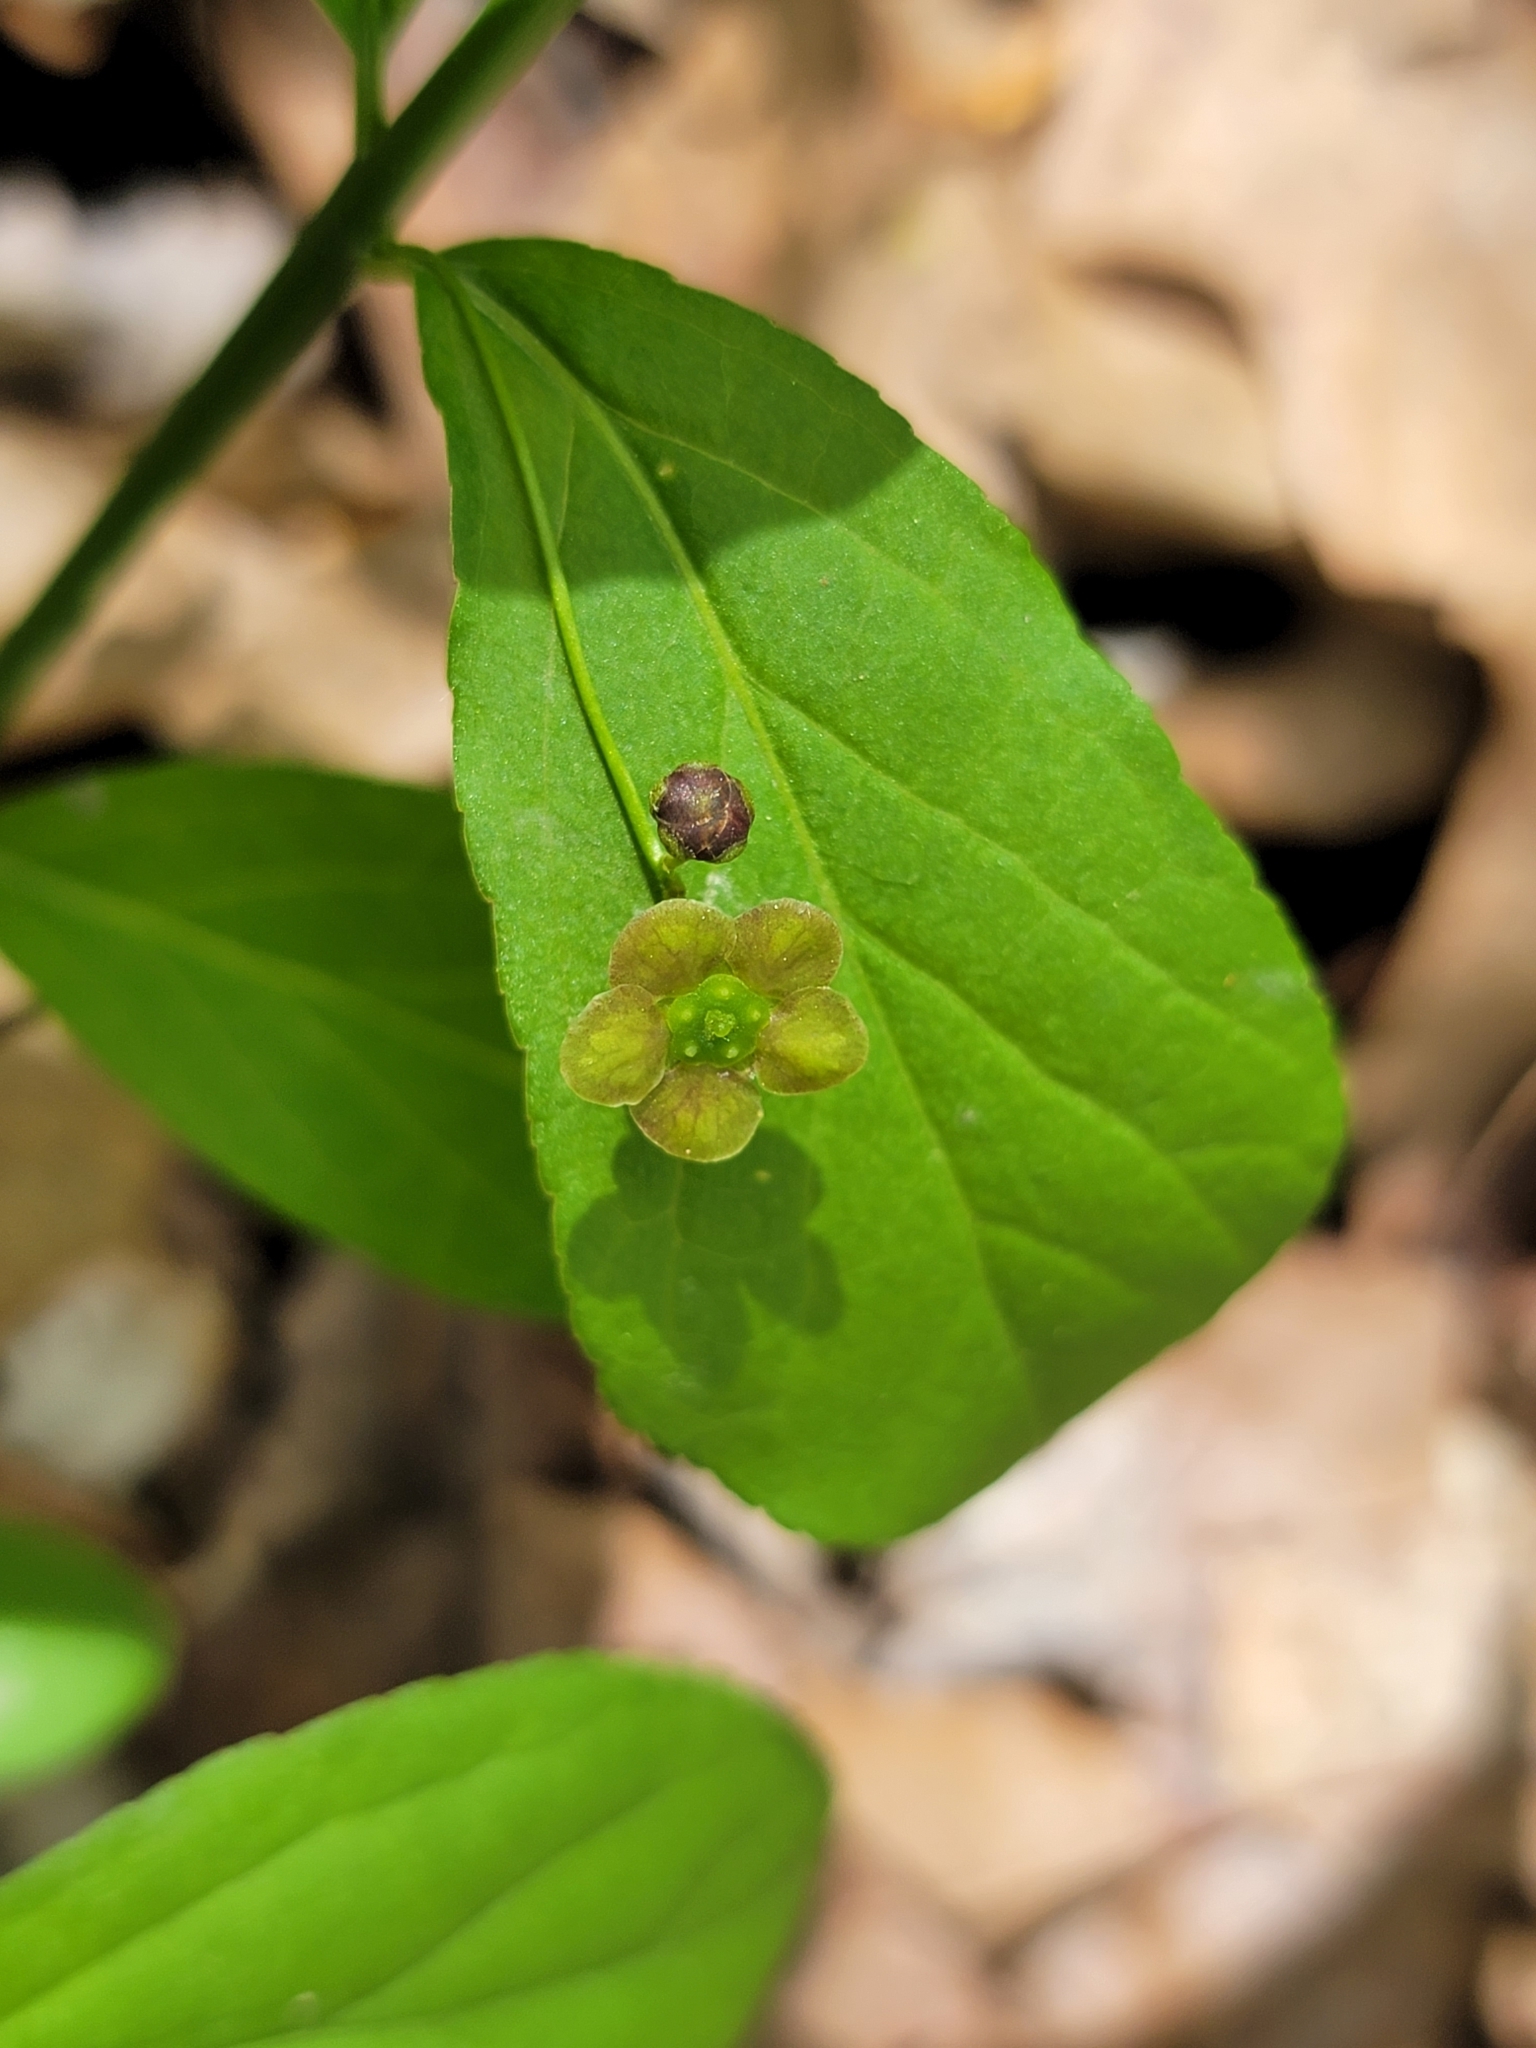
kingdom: Plantae
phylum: Tracheophyta
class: Magnoliopsida
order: Celastrales
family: Celastraceae
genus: Euonymus
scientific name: Euonymus obovatus
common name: Running strawberry-bush
